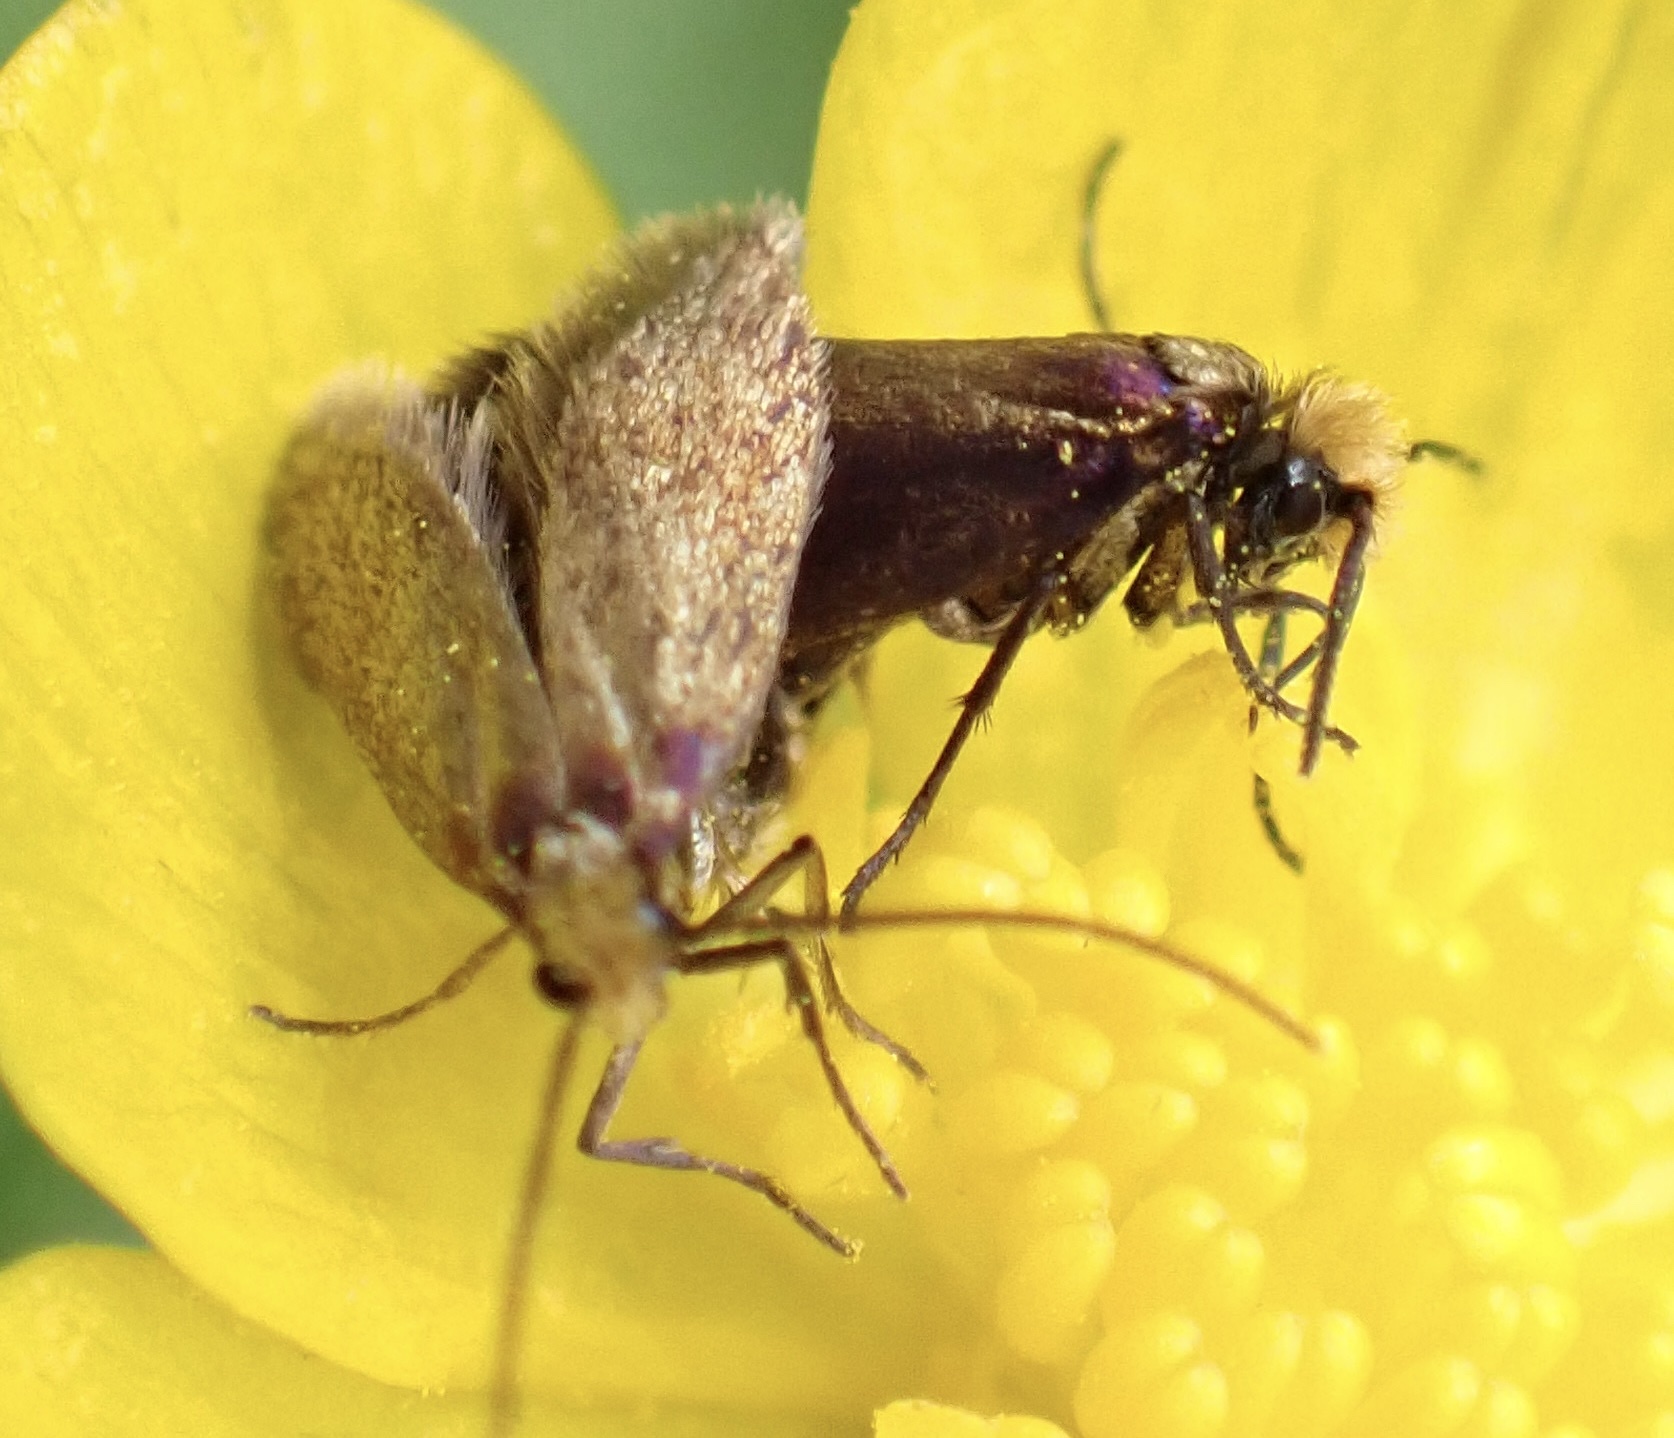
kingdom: Animalia
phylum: Arthropoda
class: Insecta
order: Lepidoptera
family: Micropterigidae
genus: Micropterix
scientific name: Micropterix calthella
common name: Plain gold
